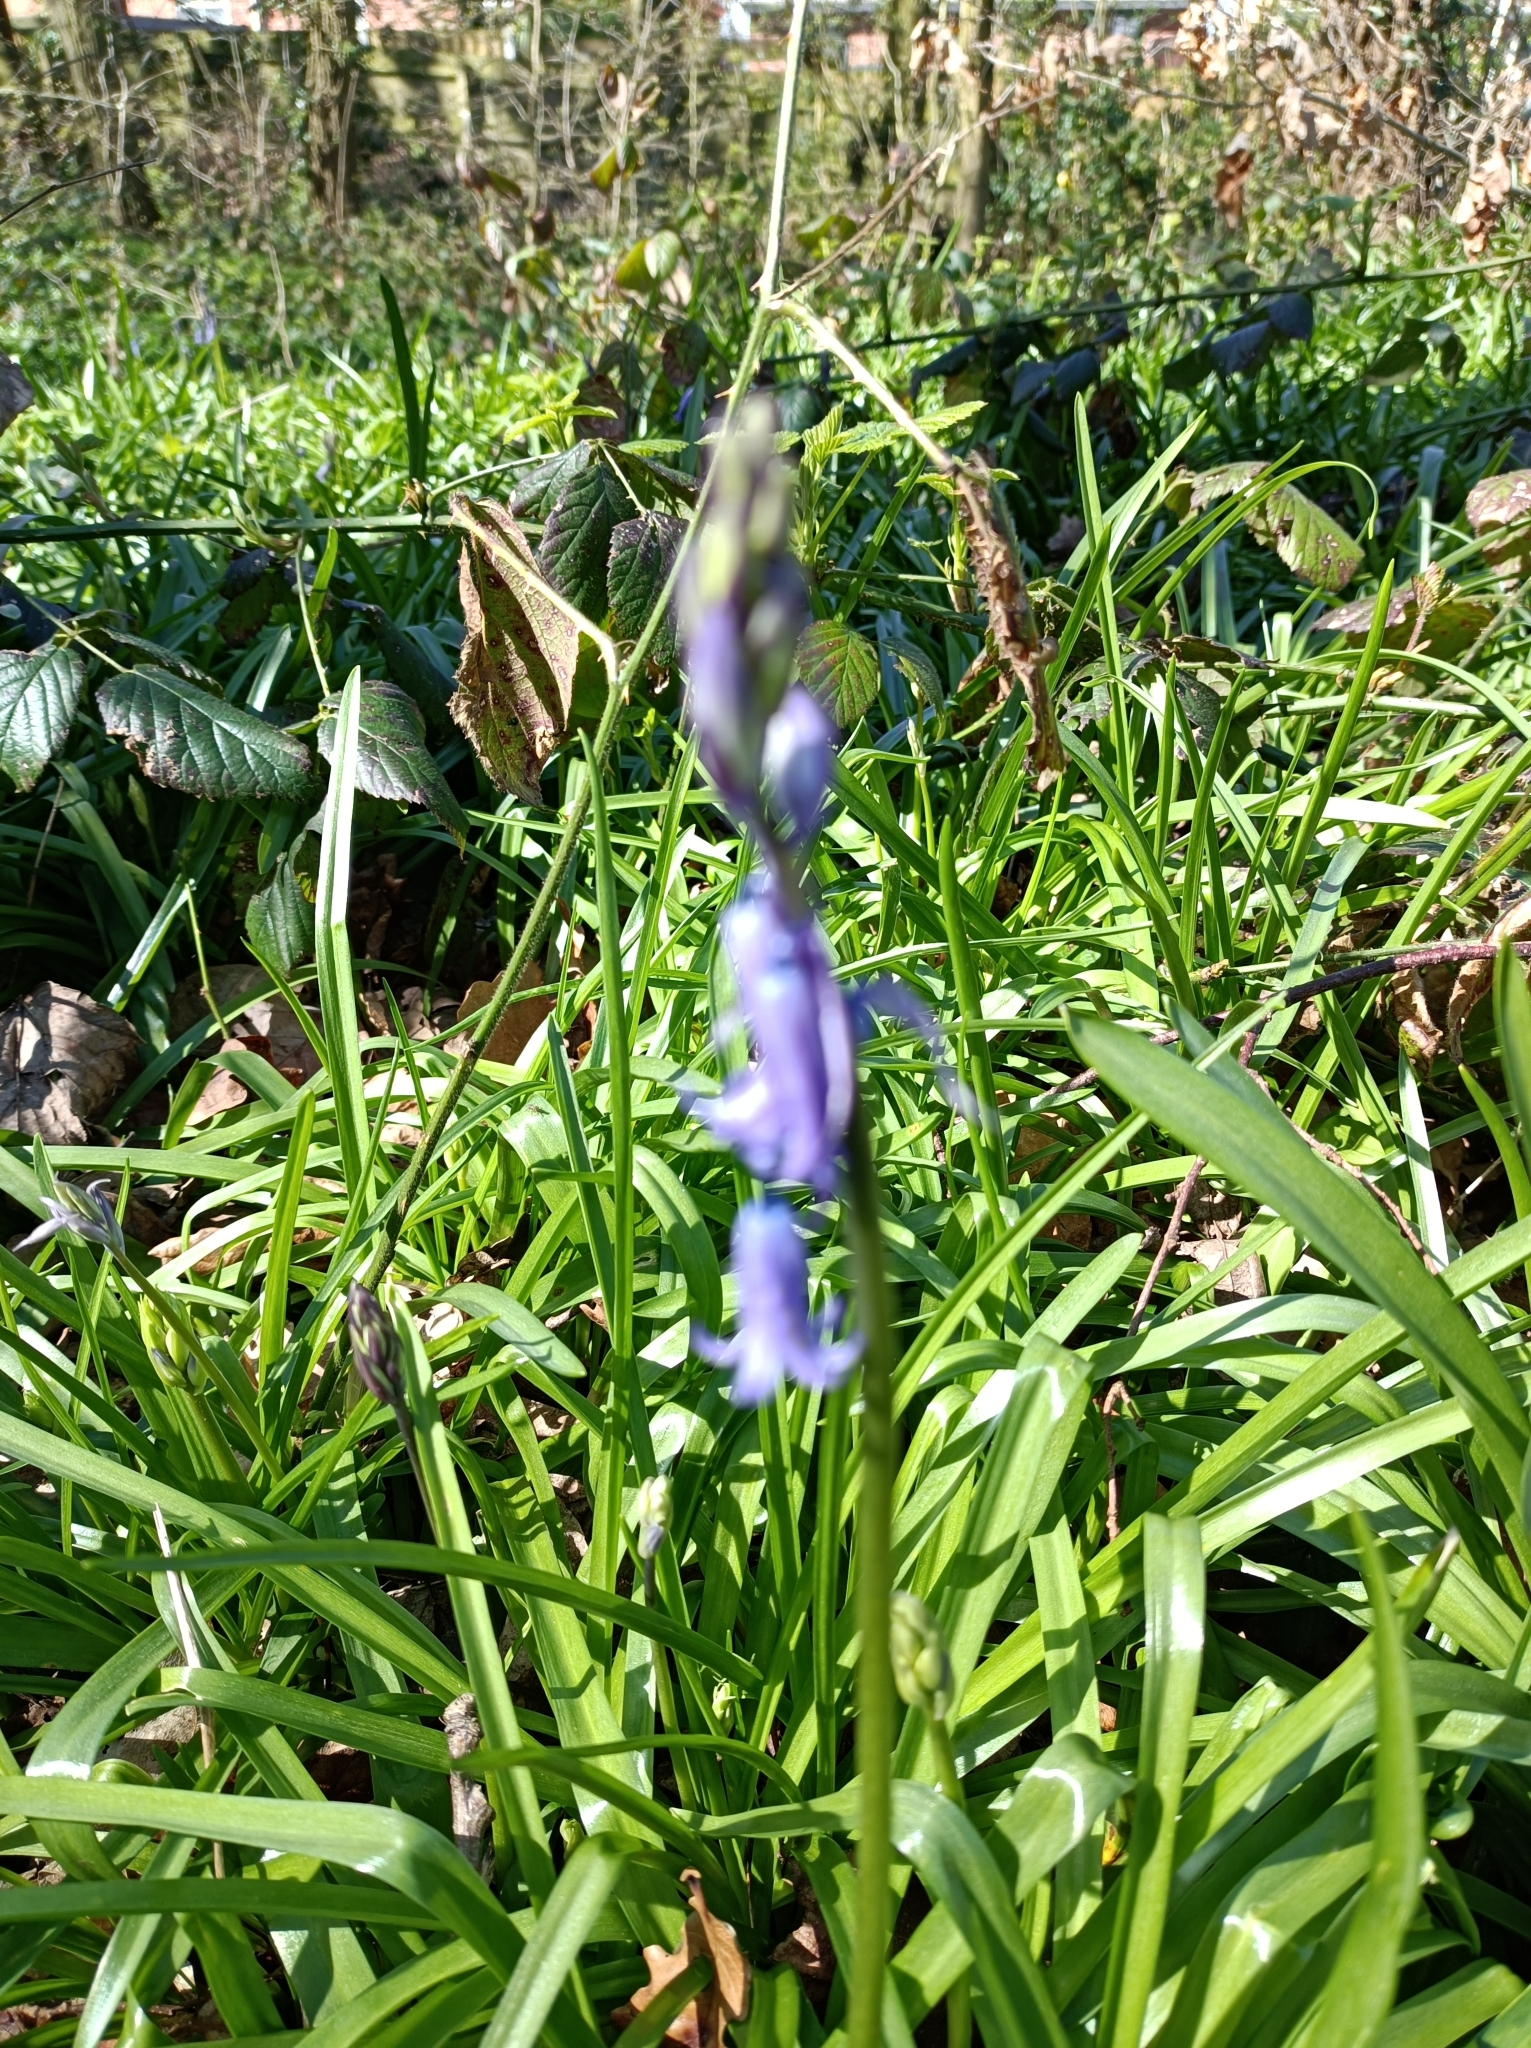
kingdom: Plantae
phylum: Tracheophyta
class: Liliopsida
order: Asparagales
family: Asparagaceae
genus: Hyacinthoides
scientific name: Hyacinthoides non-scripta
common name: Bluebell
